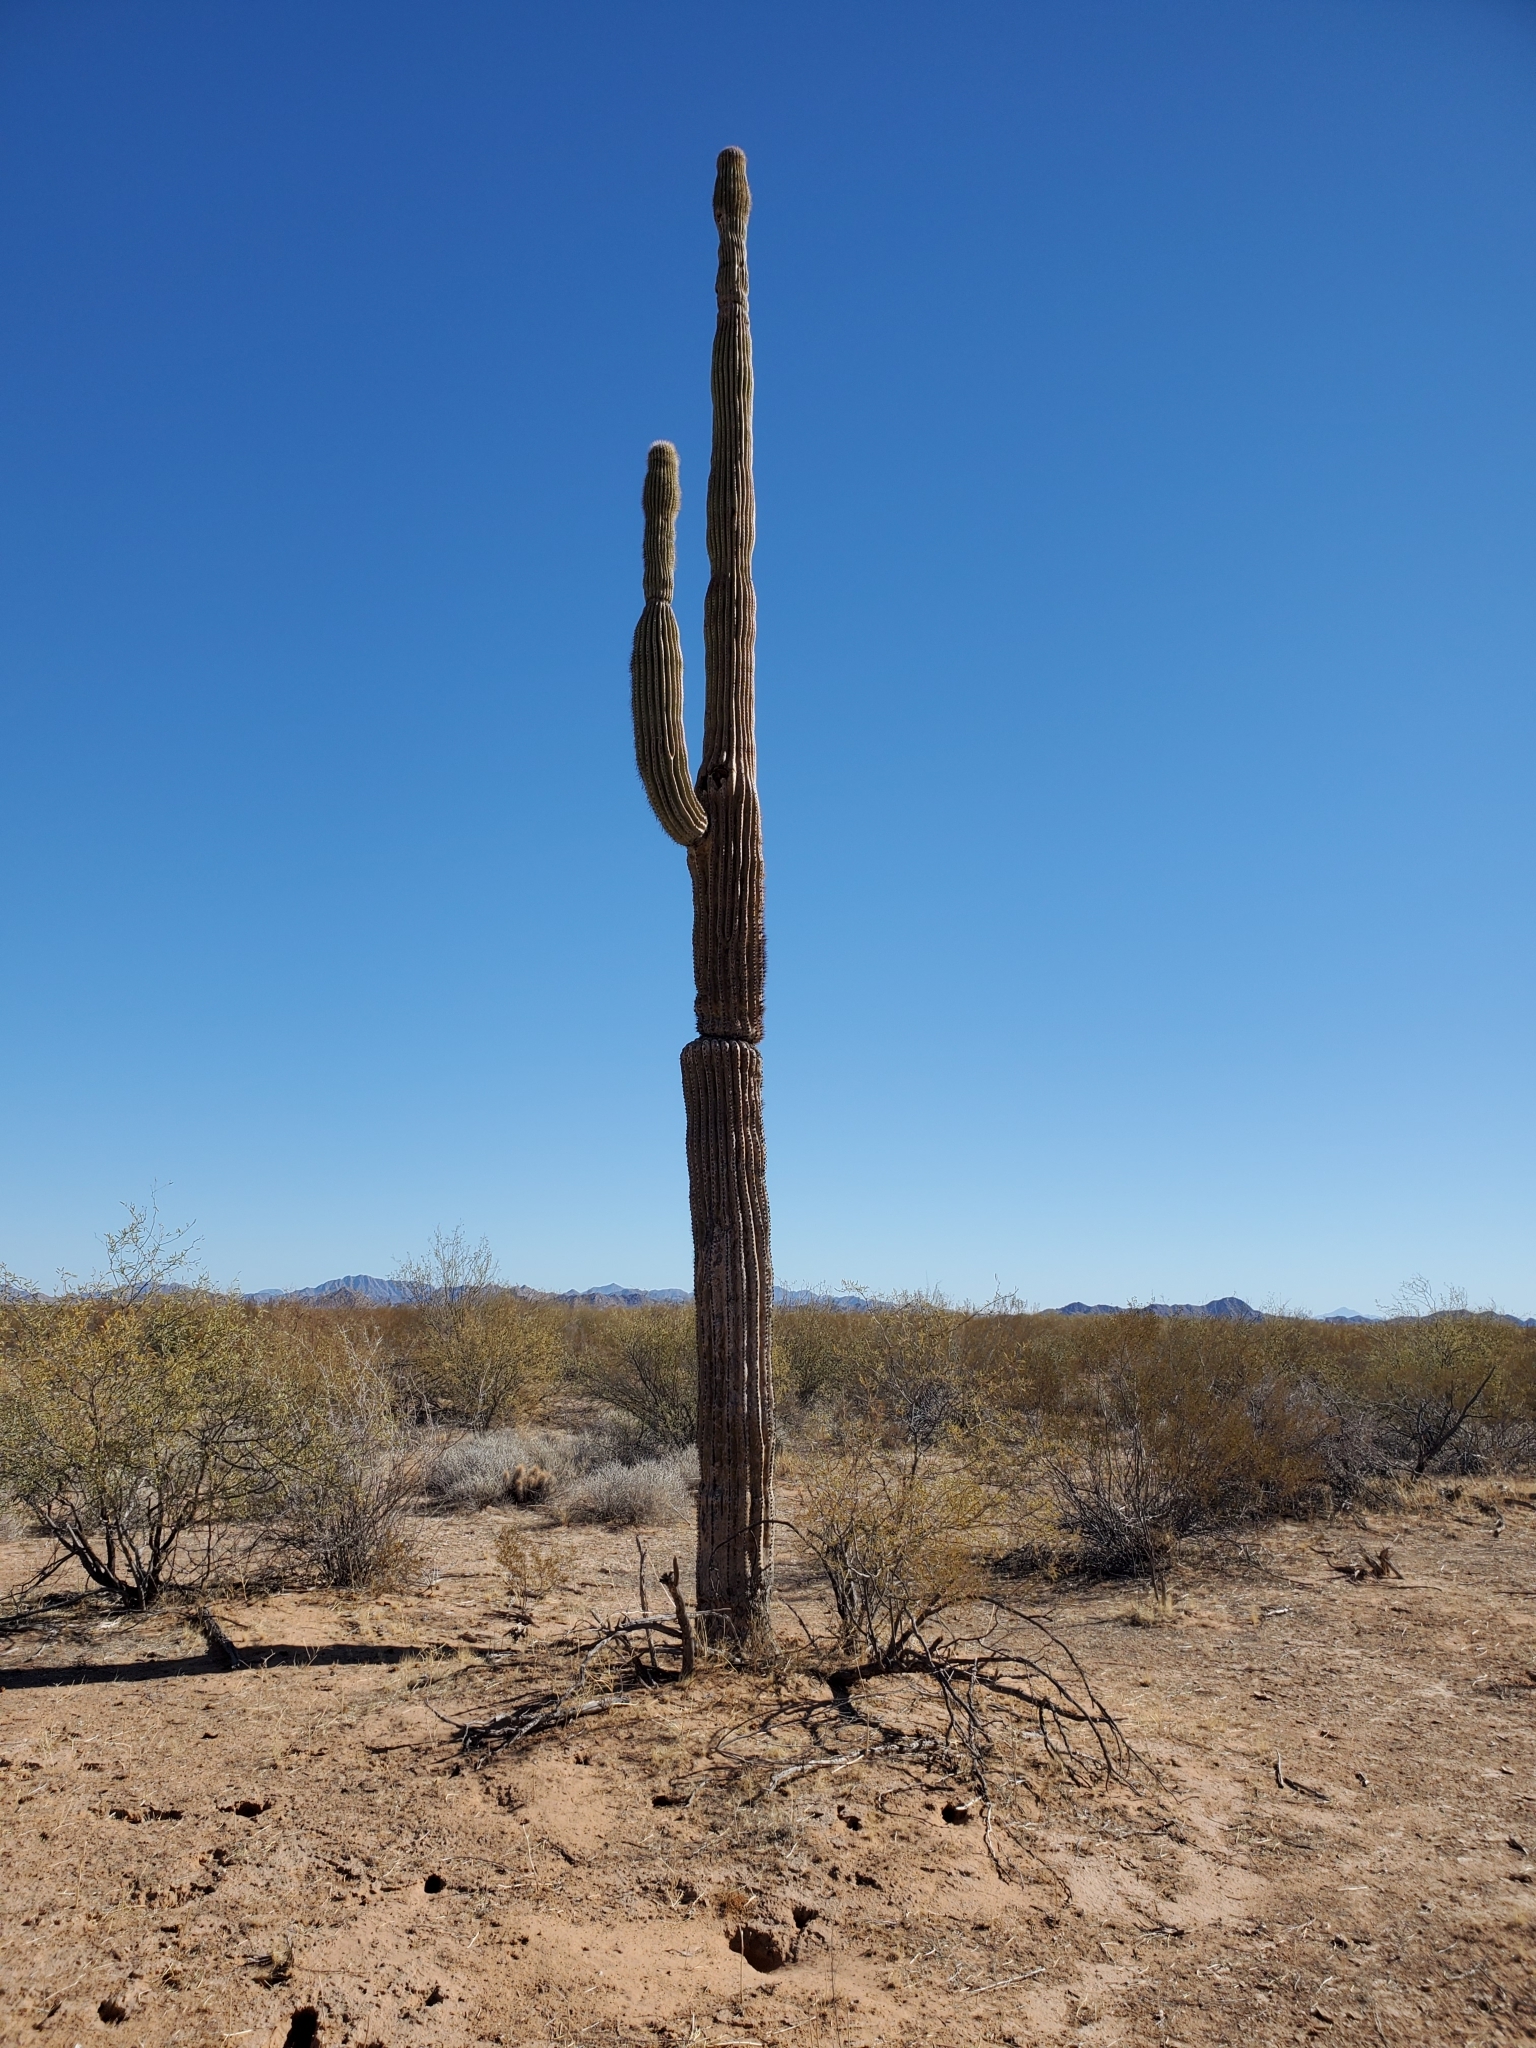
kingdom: Plantae
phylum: Tracheophyta
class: Magnoliopsida
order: Caryophyllales
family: Cactaceae
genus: Carnegiea
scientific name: Carnegiea gigantea
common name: Saguaro
